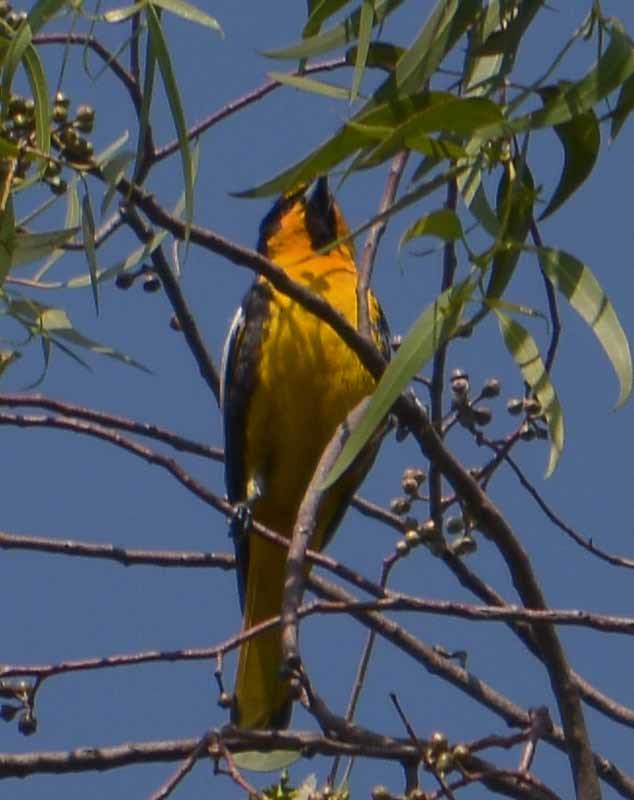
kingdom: Animalia
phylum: Chordata
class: Aves
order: Passeriformes
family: Icteridae
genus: Icterus
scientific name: Icterus abeillei
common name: Black-backed oriole
